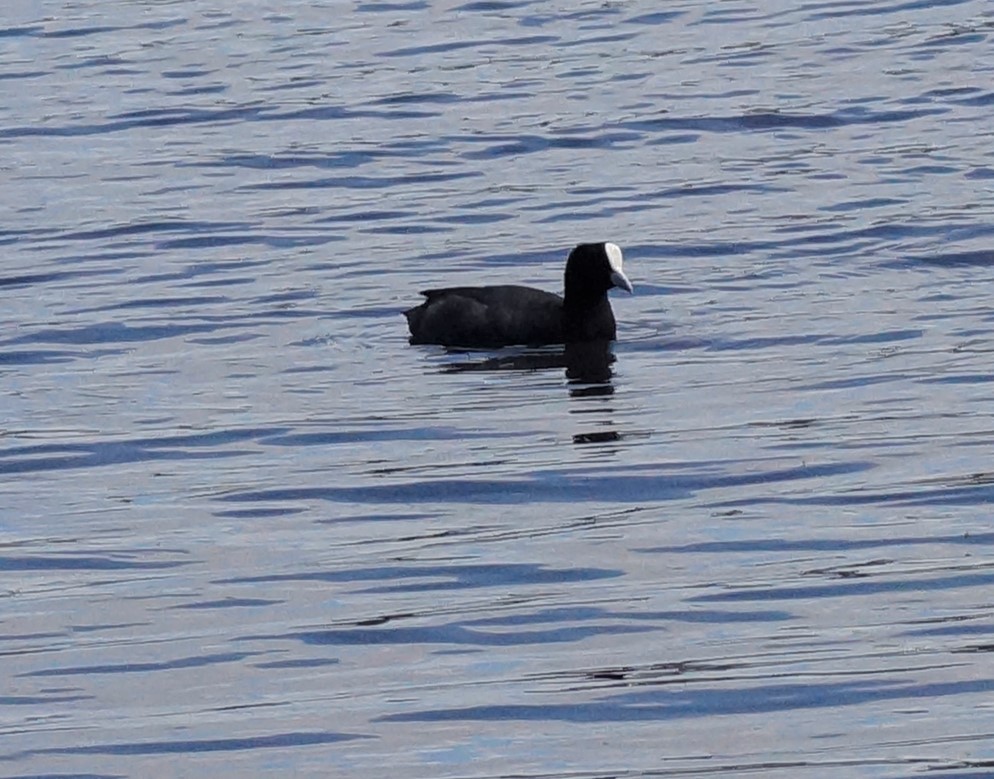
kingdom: Animalia
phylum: Chordata
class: Aves
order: Gruiformes
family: Rallidae
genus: Fulica
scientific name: Fulica atra
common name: Eurasian coot
